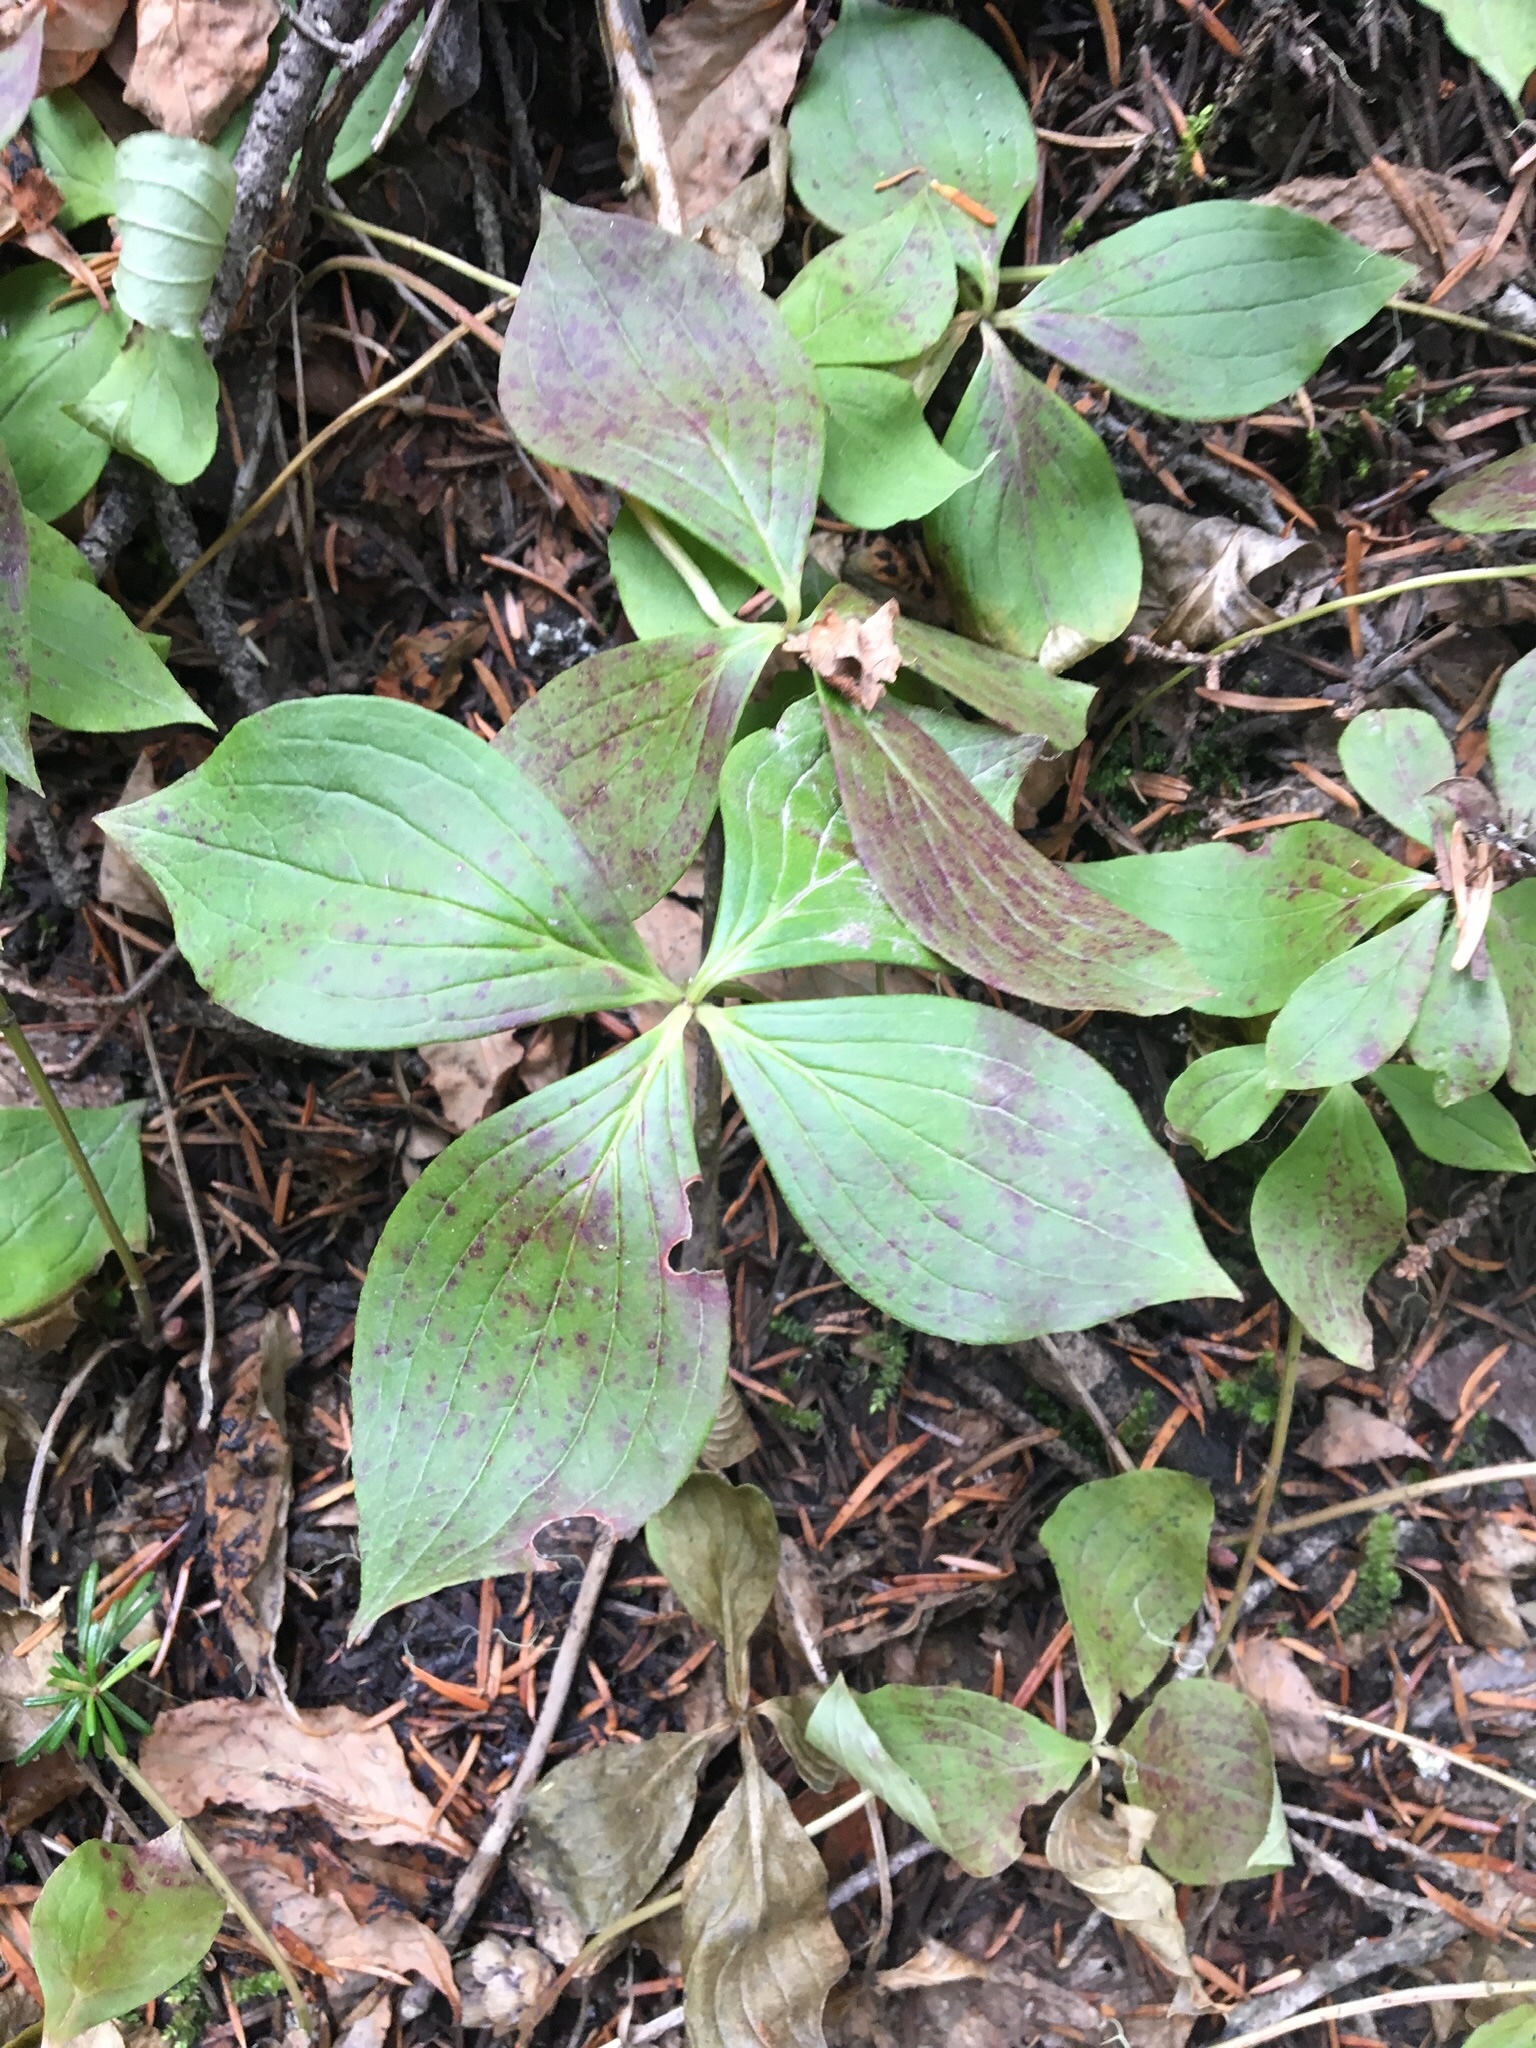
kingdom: Plantae
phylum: Tracheophyta
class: Magnoliopsida
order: Cornales
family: Cornaceae
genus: Cornus
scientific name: Cornus unalaschkensis
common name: Alaska bunchberry
